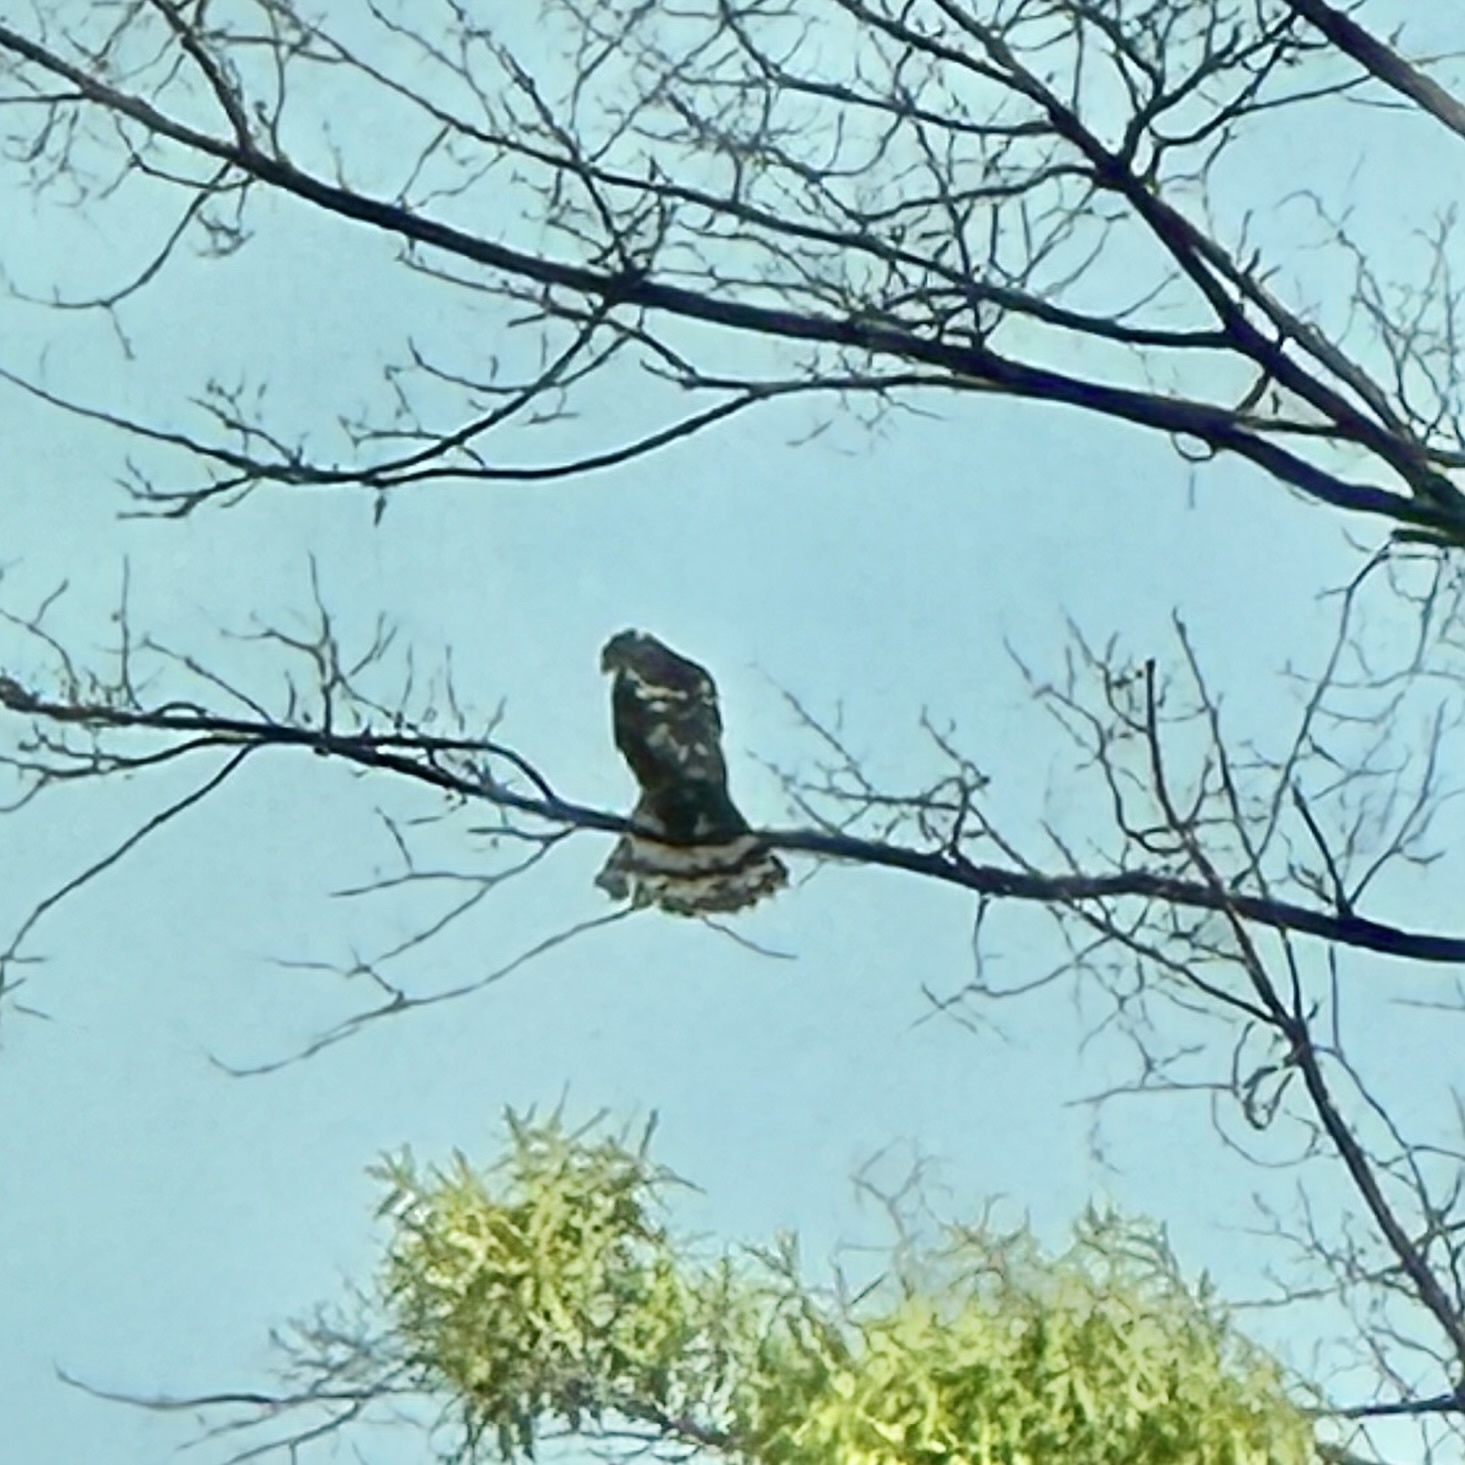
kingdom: Animalia
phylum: Chordata
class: Aves
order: Accipitriformes
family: Accipitridae
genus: Accipiter
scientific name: Accipiter cooperii
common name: Cooper's hawk
